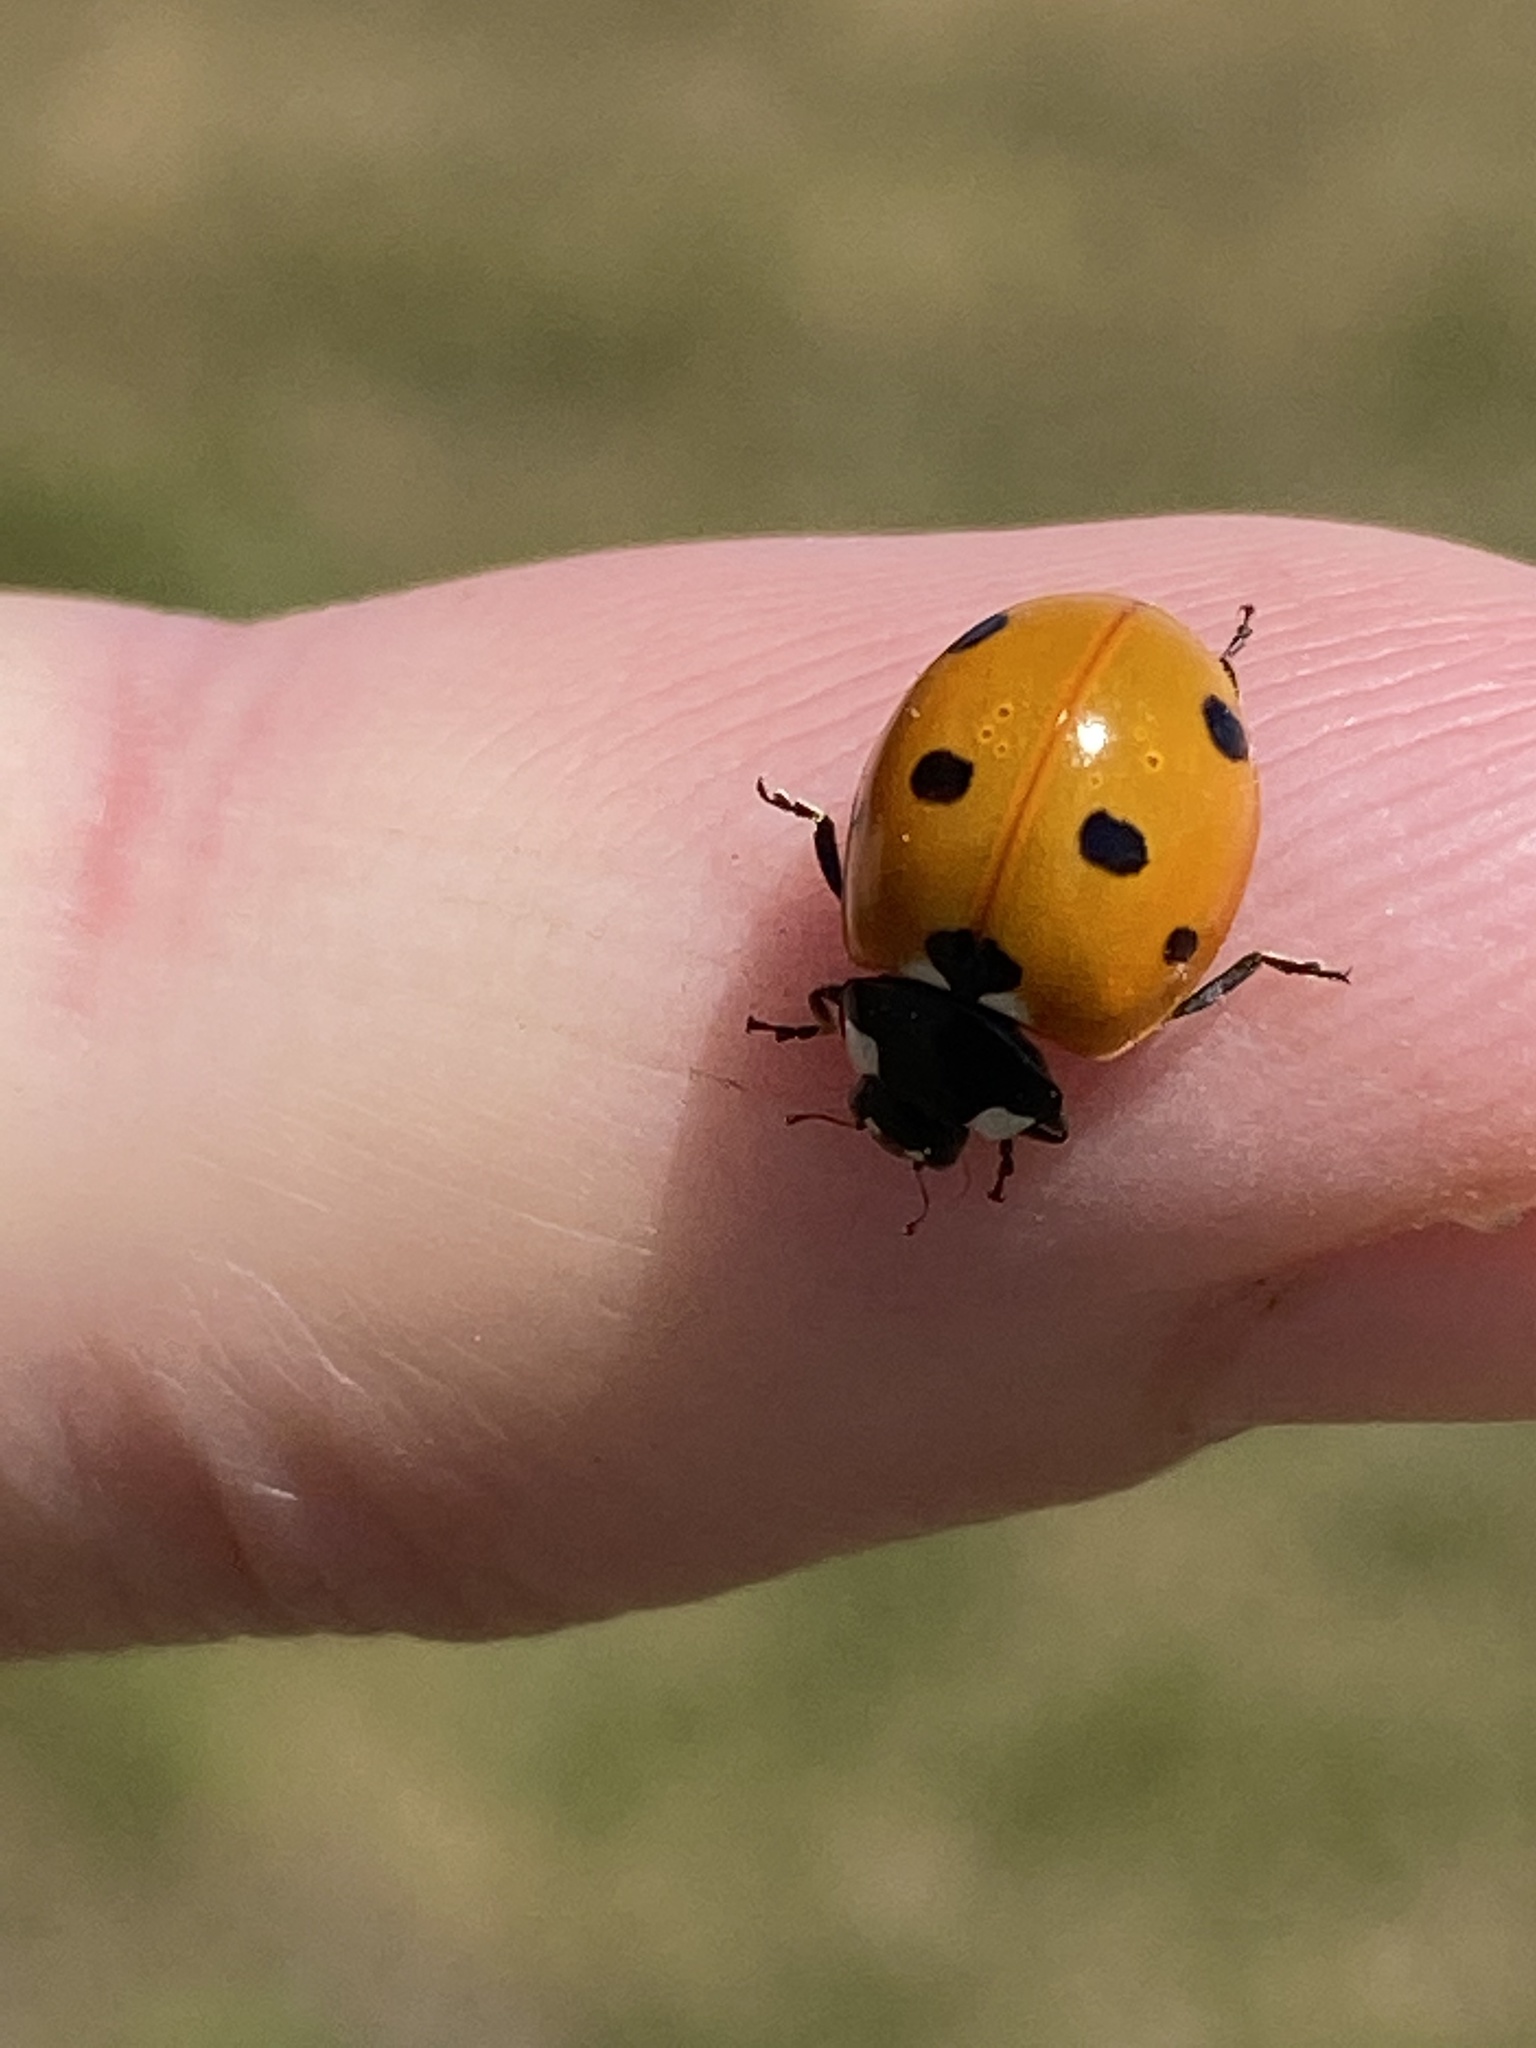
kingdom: Animalia
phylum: Arthropoda
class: Insecta
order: Coleoptera
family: Coccinellidae
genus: Coccinella
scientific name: Coccinella septempunctata
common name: Sevenspotted lady beetle
